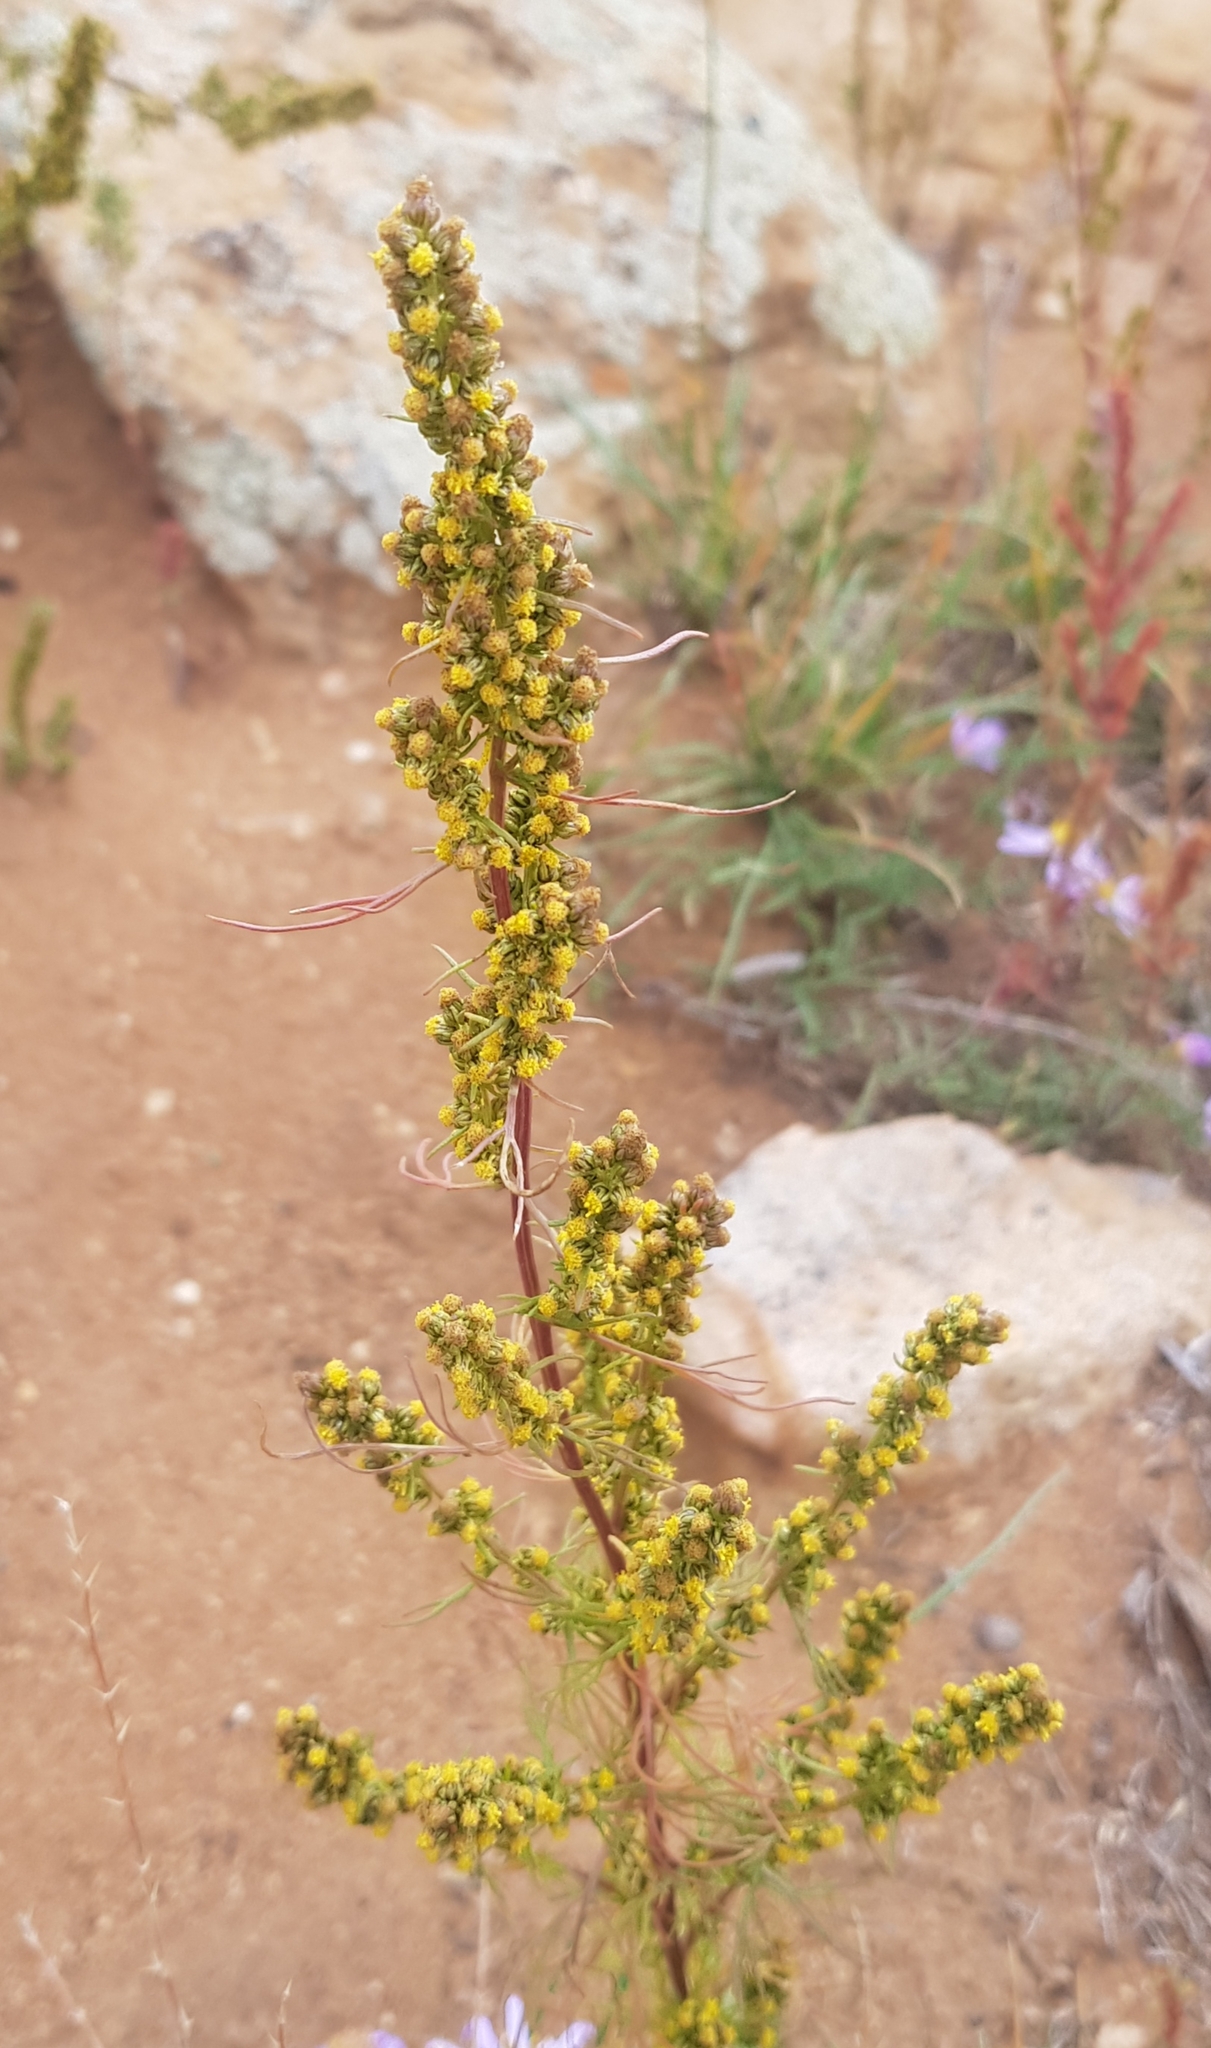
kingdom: Plantae
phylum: Tracheophyta
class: Magnoliopsida
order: Asterales
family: Asteraceae
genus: Artemisia
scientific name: Artemisia palustris
